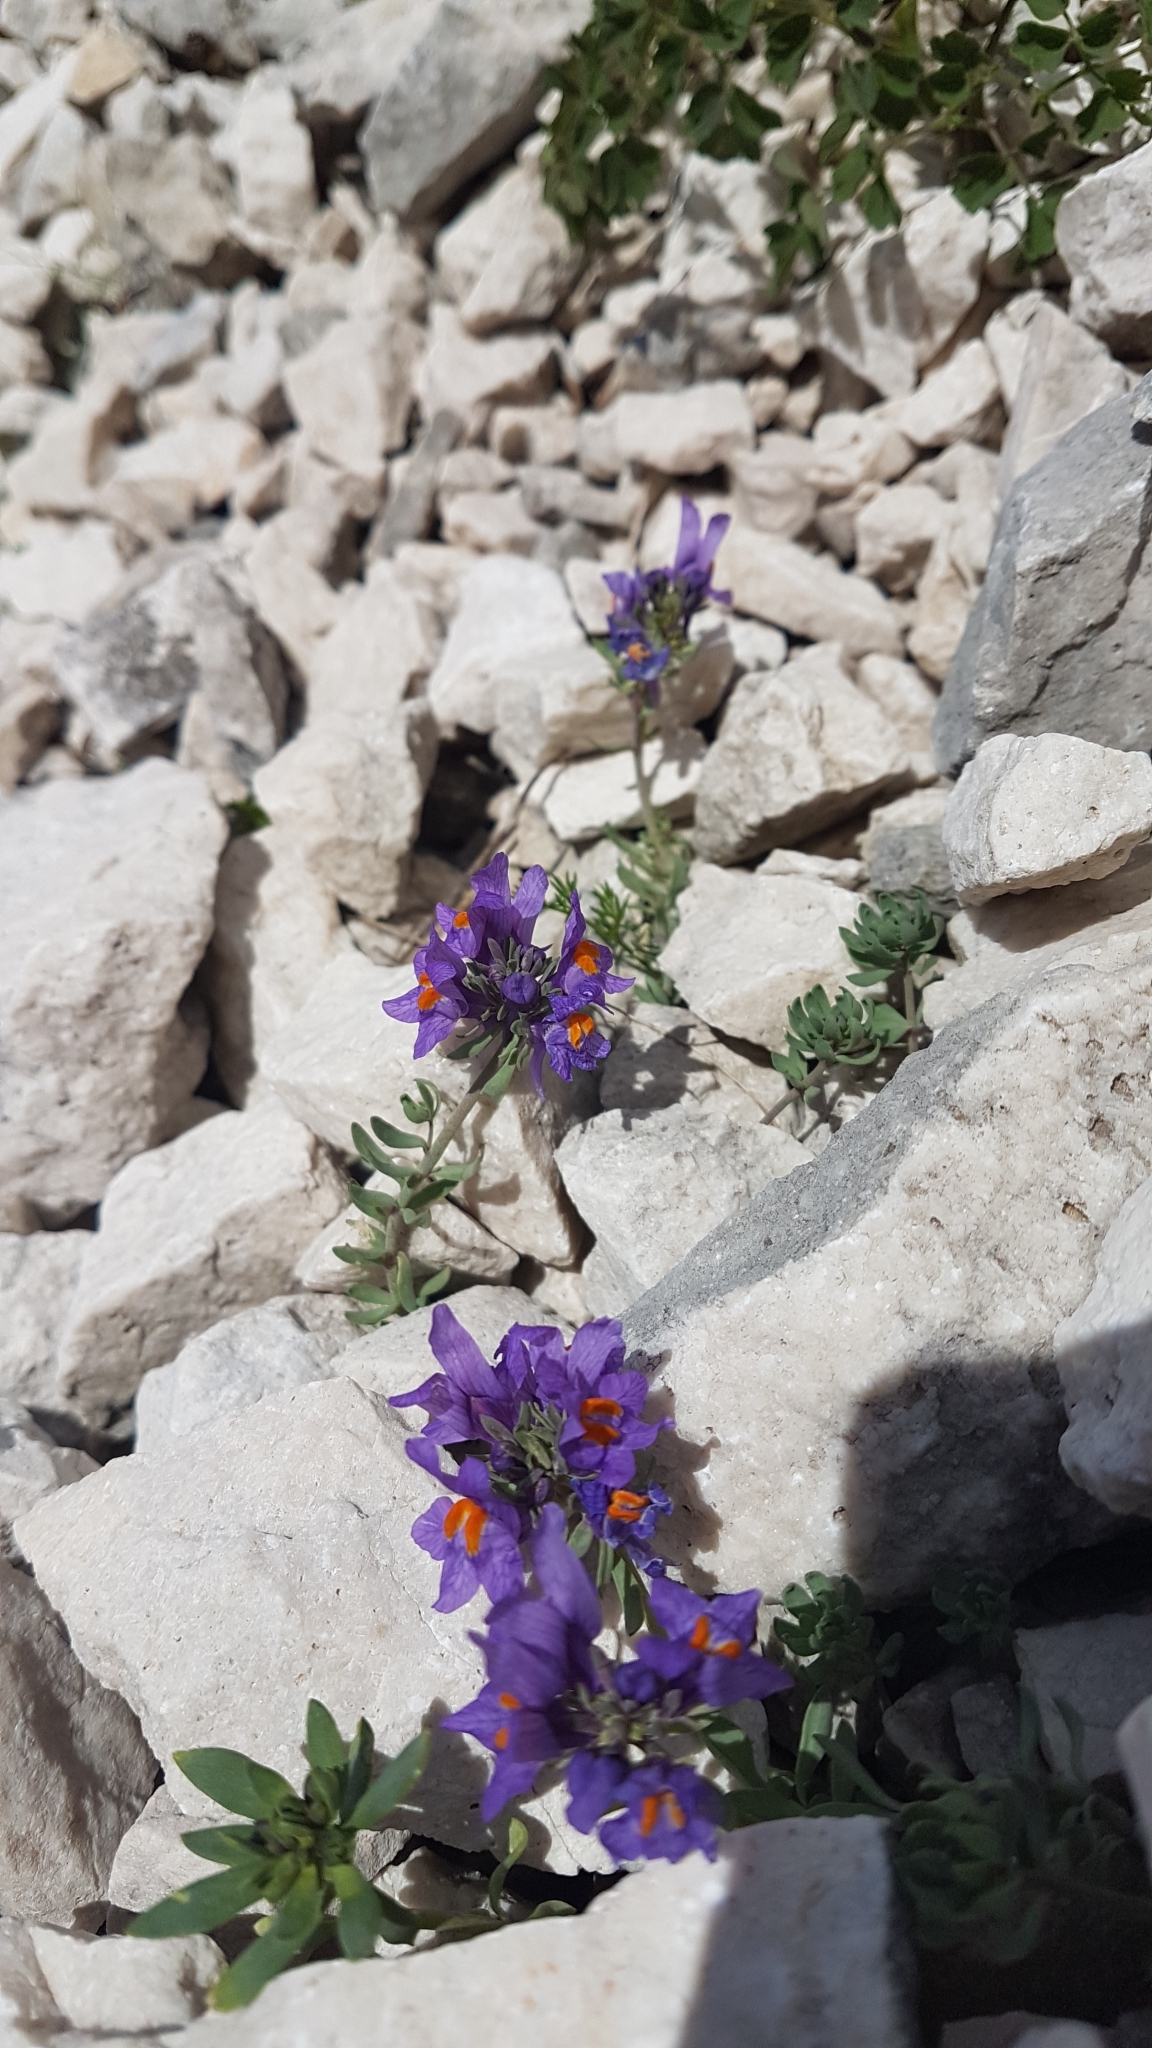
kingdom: Plantae
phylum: Tracheophyta
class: Magnoliopsida
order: Lamiales
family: Plantaginaceae
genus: Linaria
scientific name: Linaria alpina
